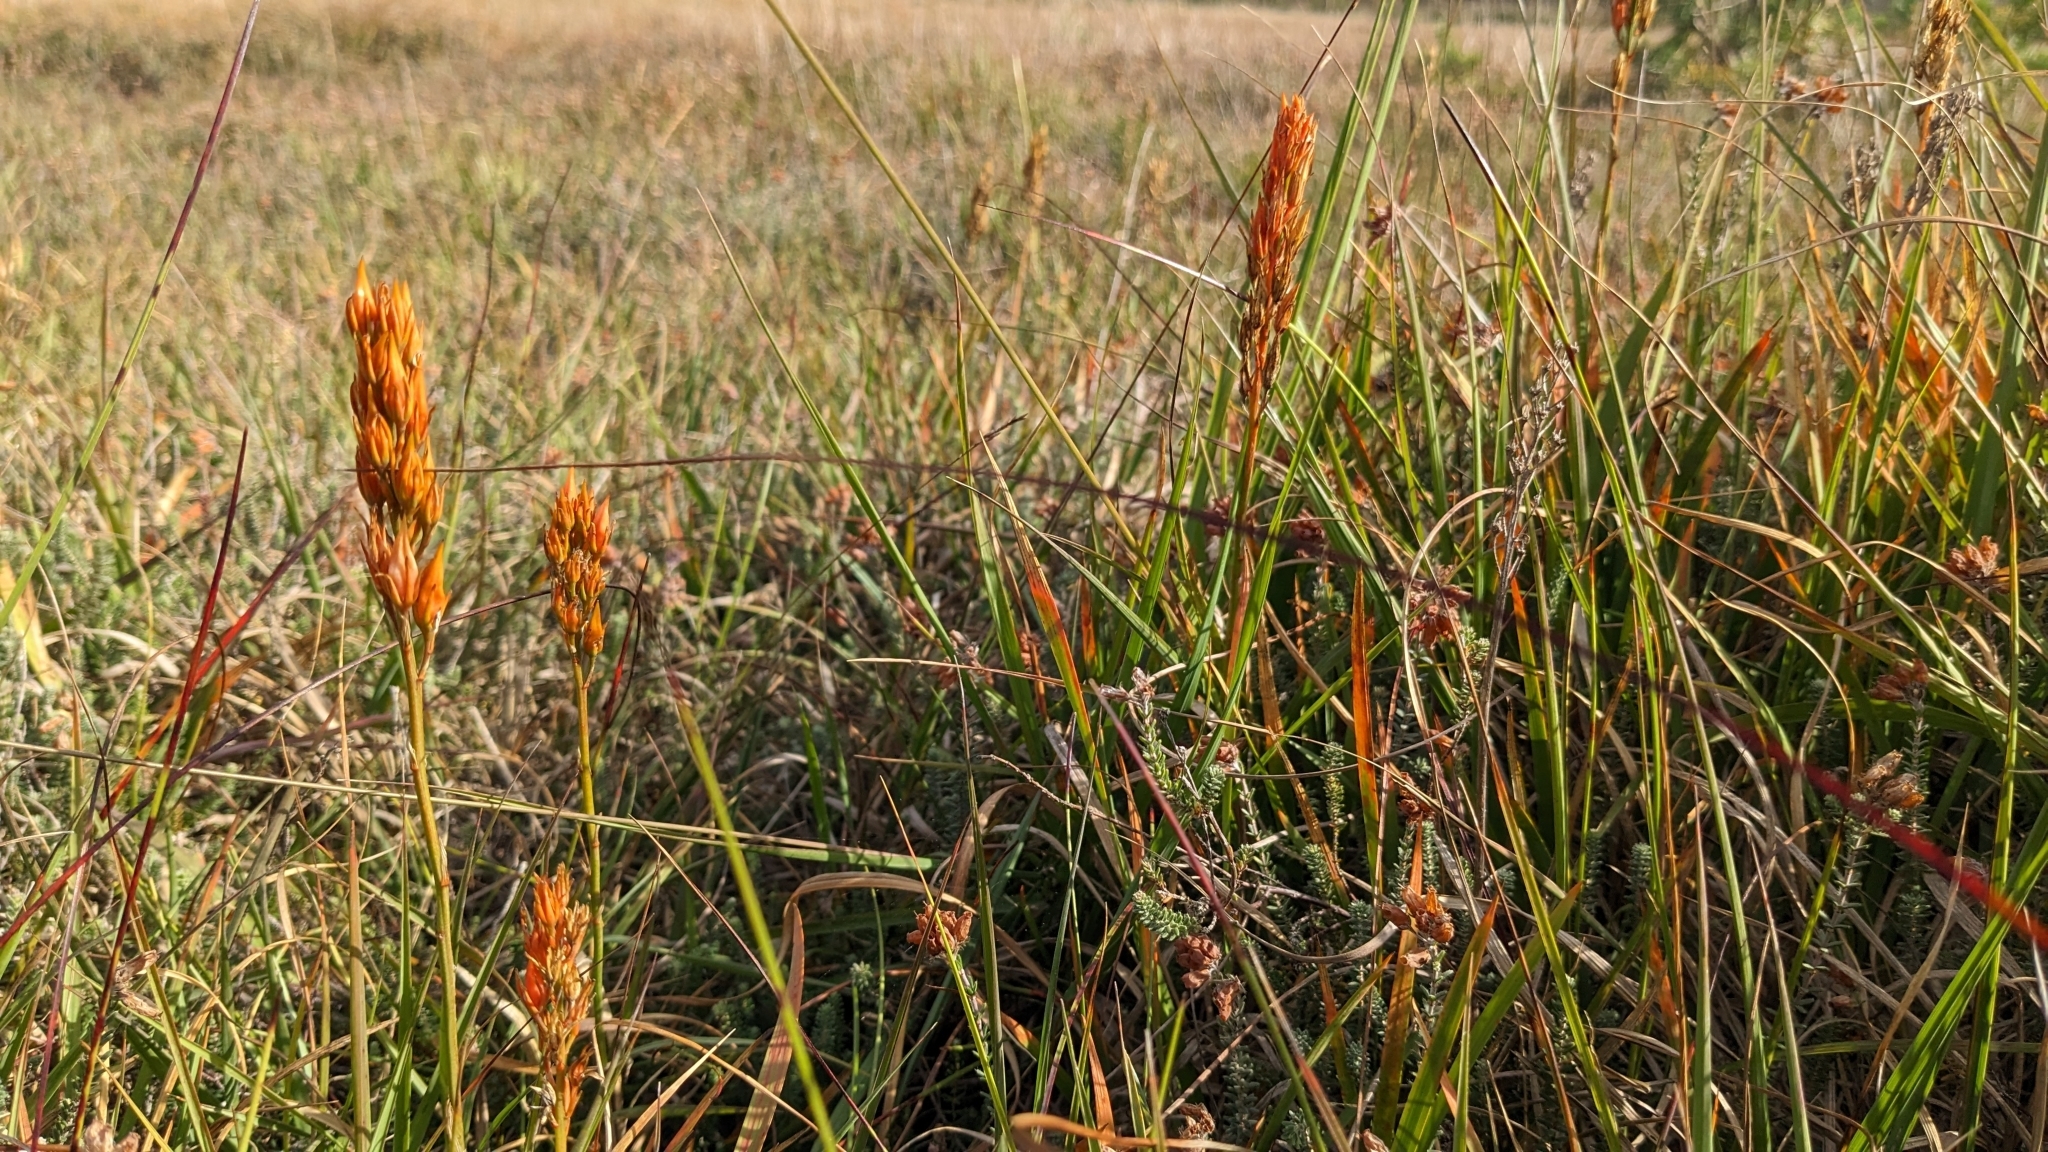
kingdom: Plantae
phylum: Tracheophyta
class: Liliopsida
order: Dioscoreales
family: Nartheciaceae
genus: Narthecium
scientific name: Narthecium ossifragum
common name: Bog asphodel
